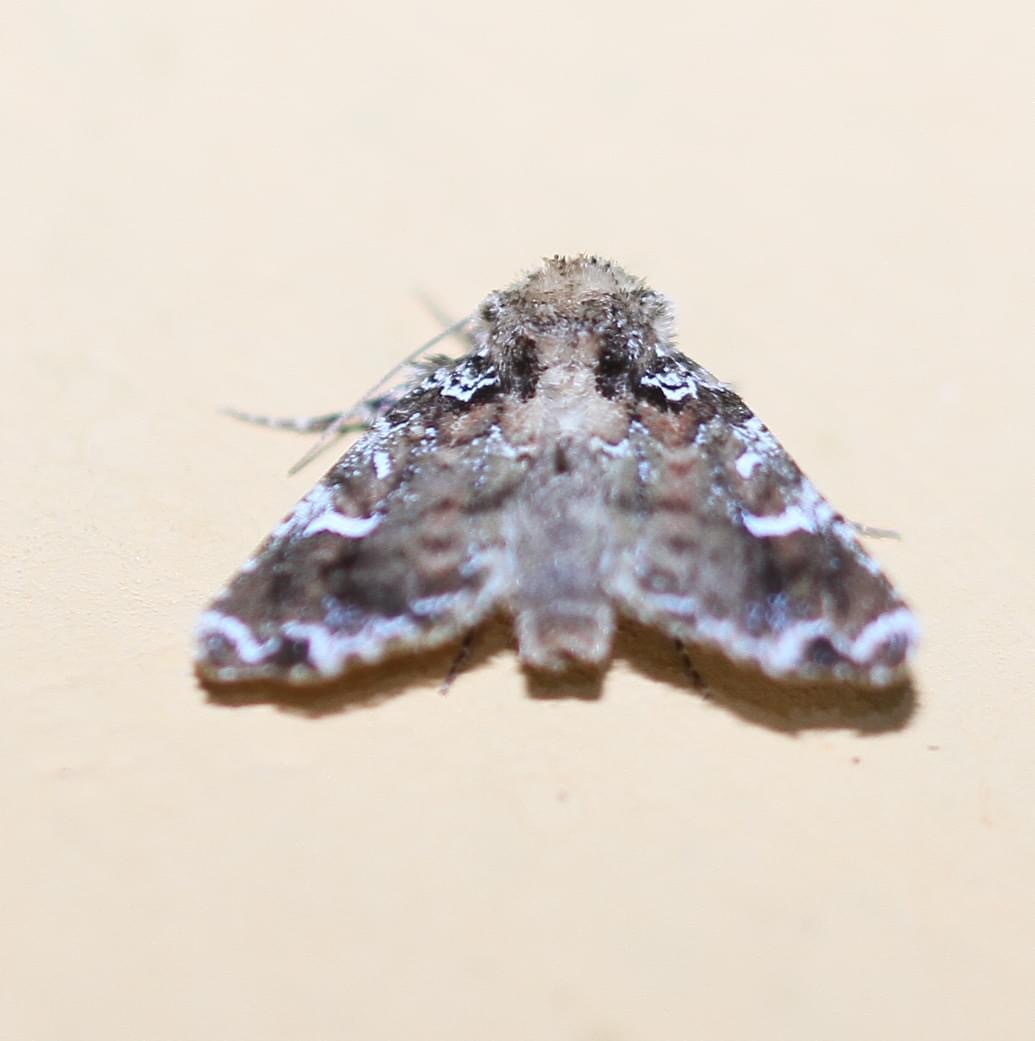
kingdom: Animalia
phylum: Arthropoda
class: Insecta
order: Lepidoptera
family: Noctuidae
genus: Chabuata
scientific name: Chabuata
